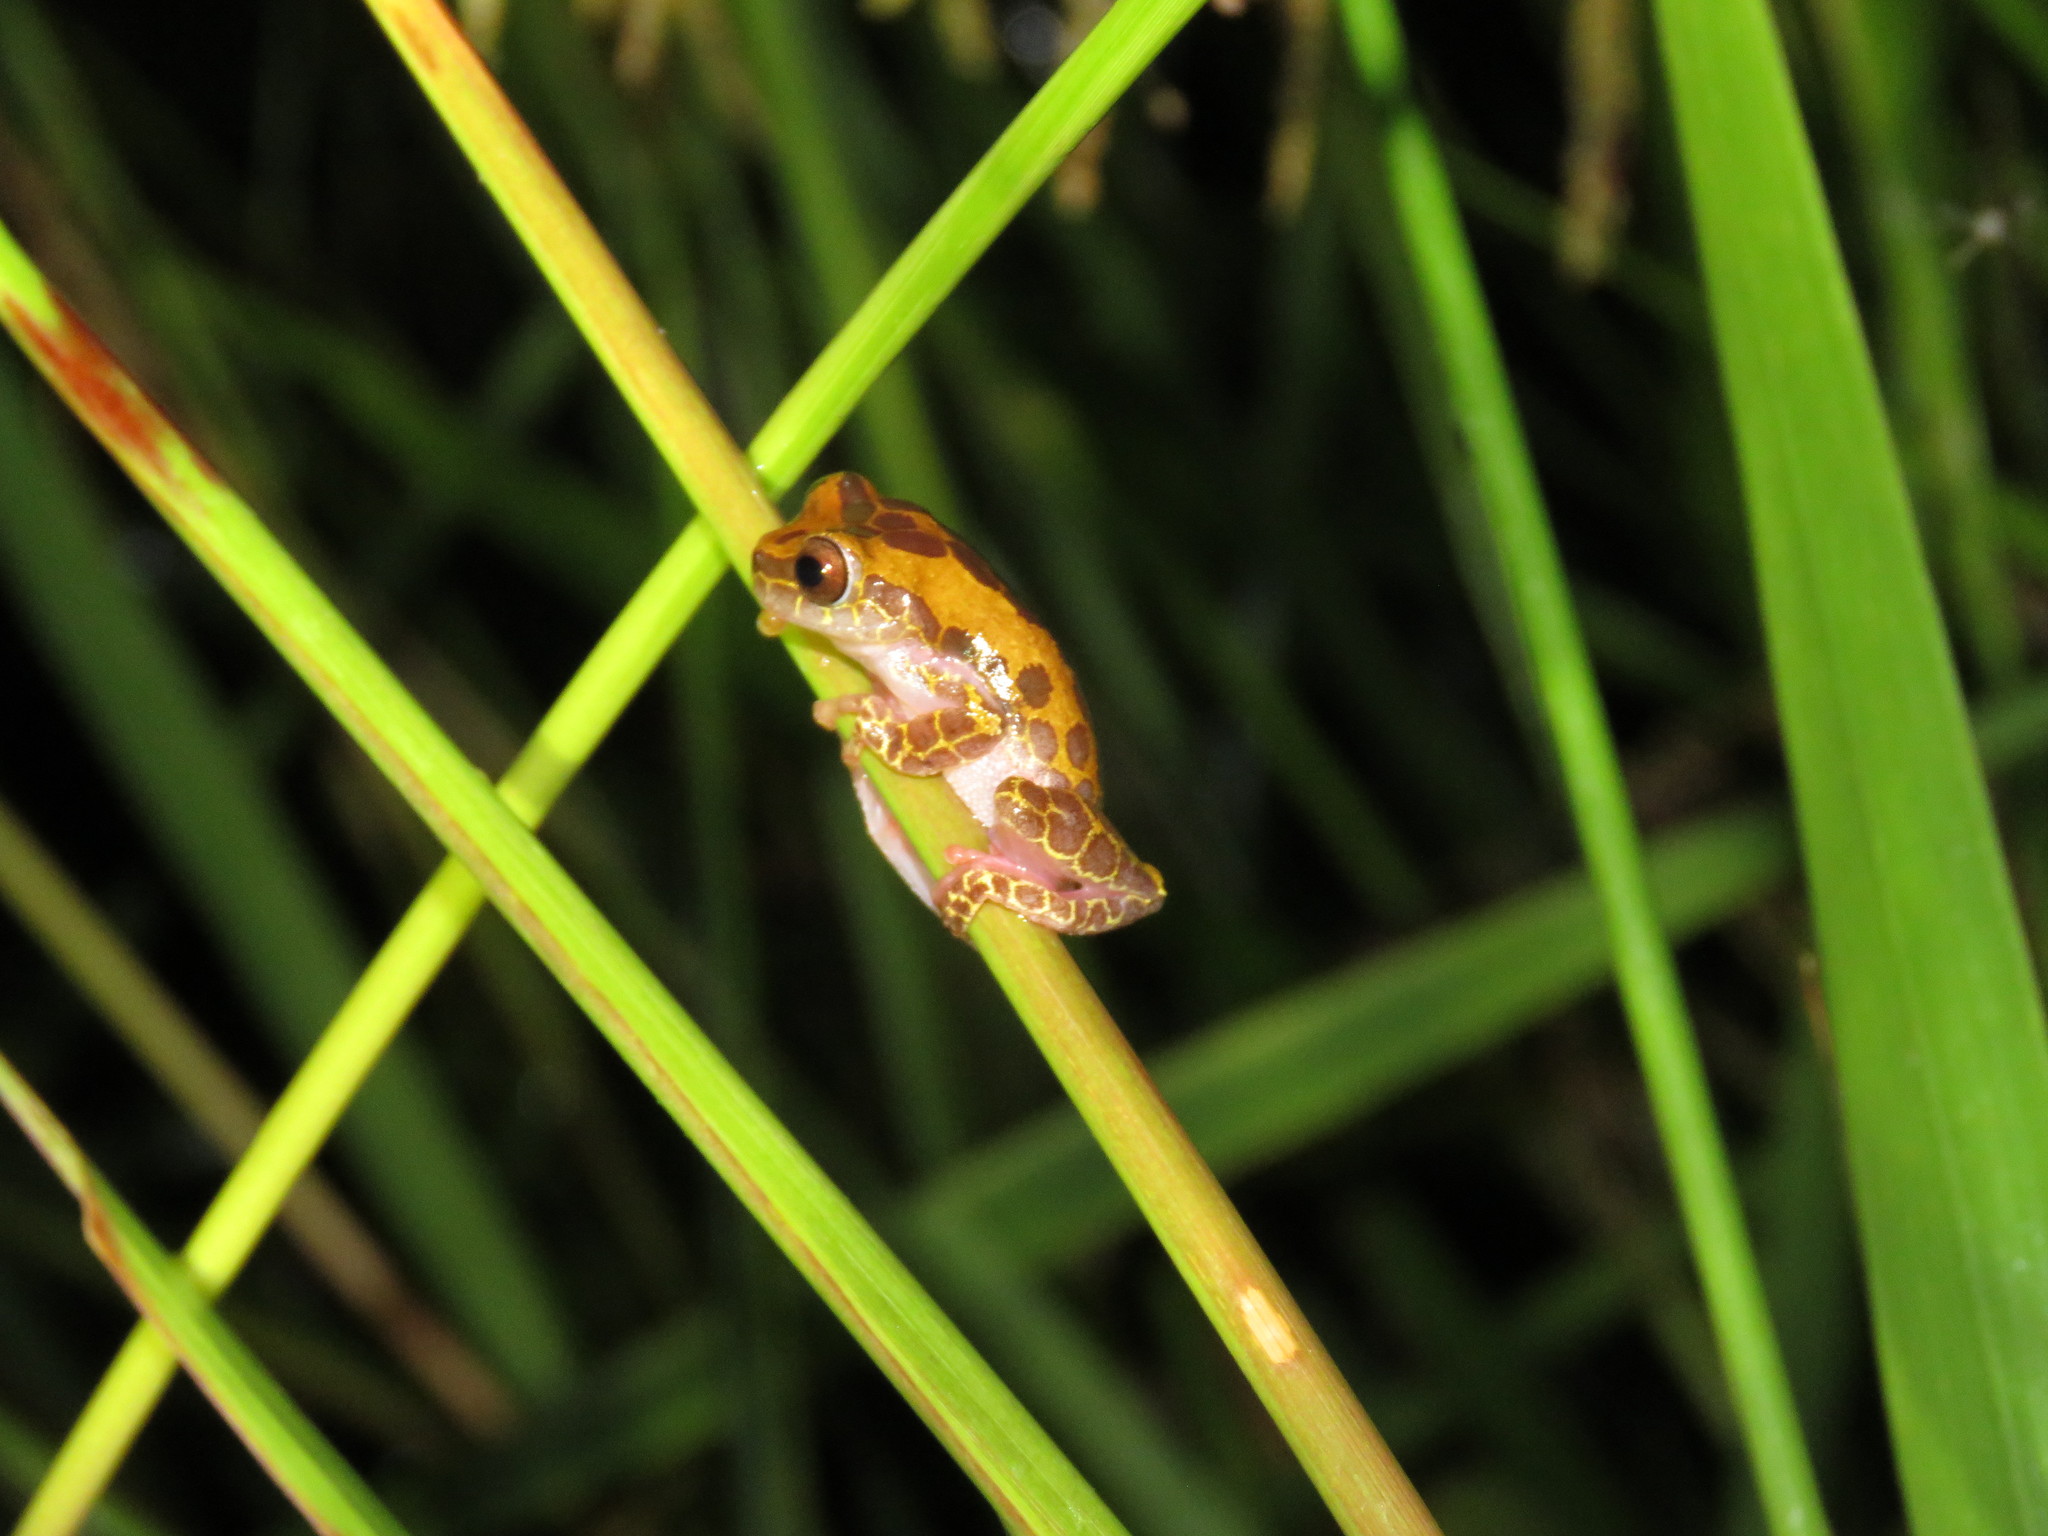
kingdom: Animalia
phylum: Chordata
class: Amphibia
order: Anura
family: Hylidae
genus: Dendropsophus
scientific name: Dendropsophus arndti
